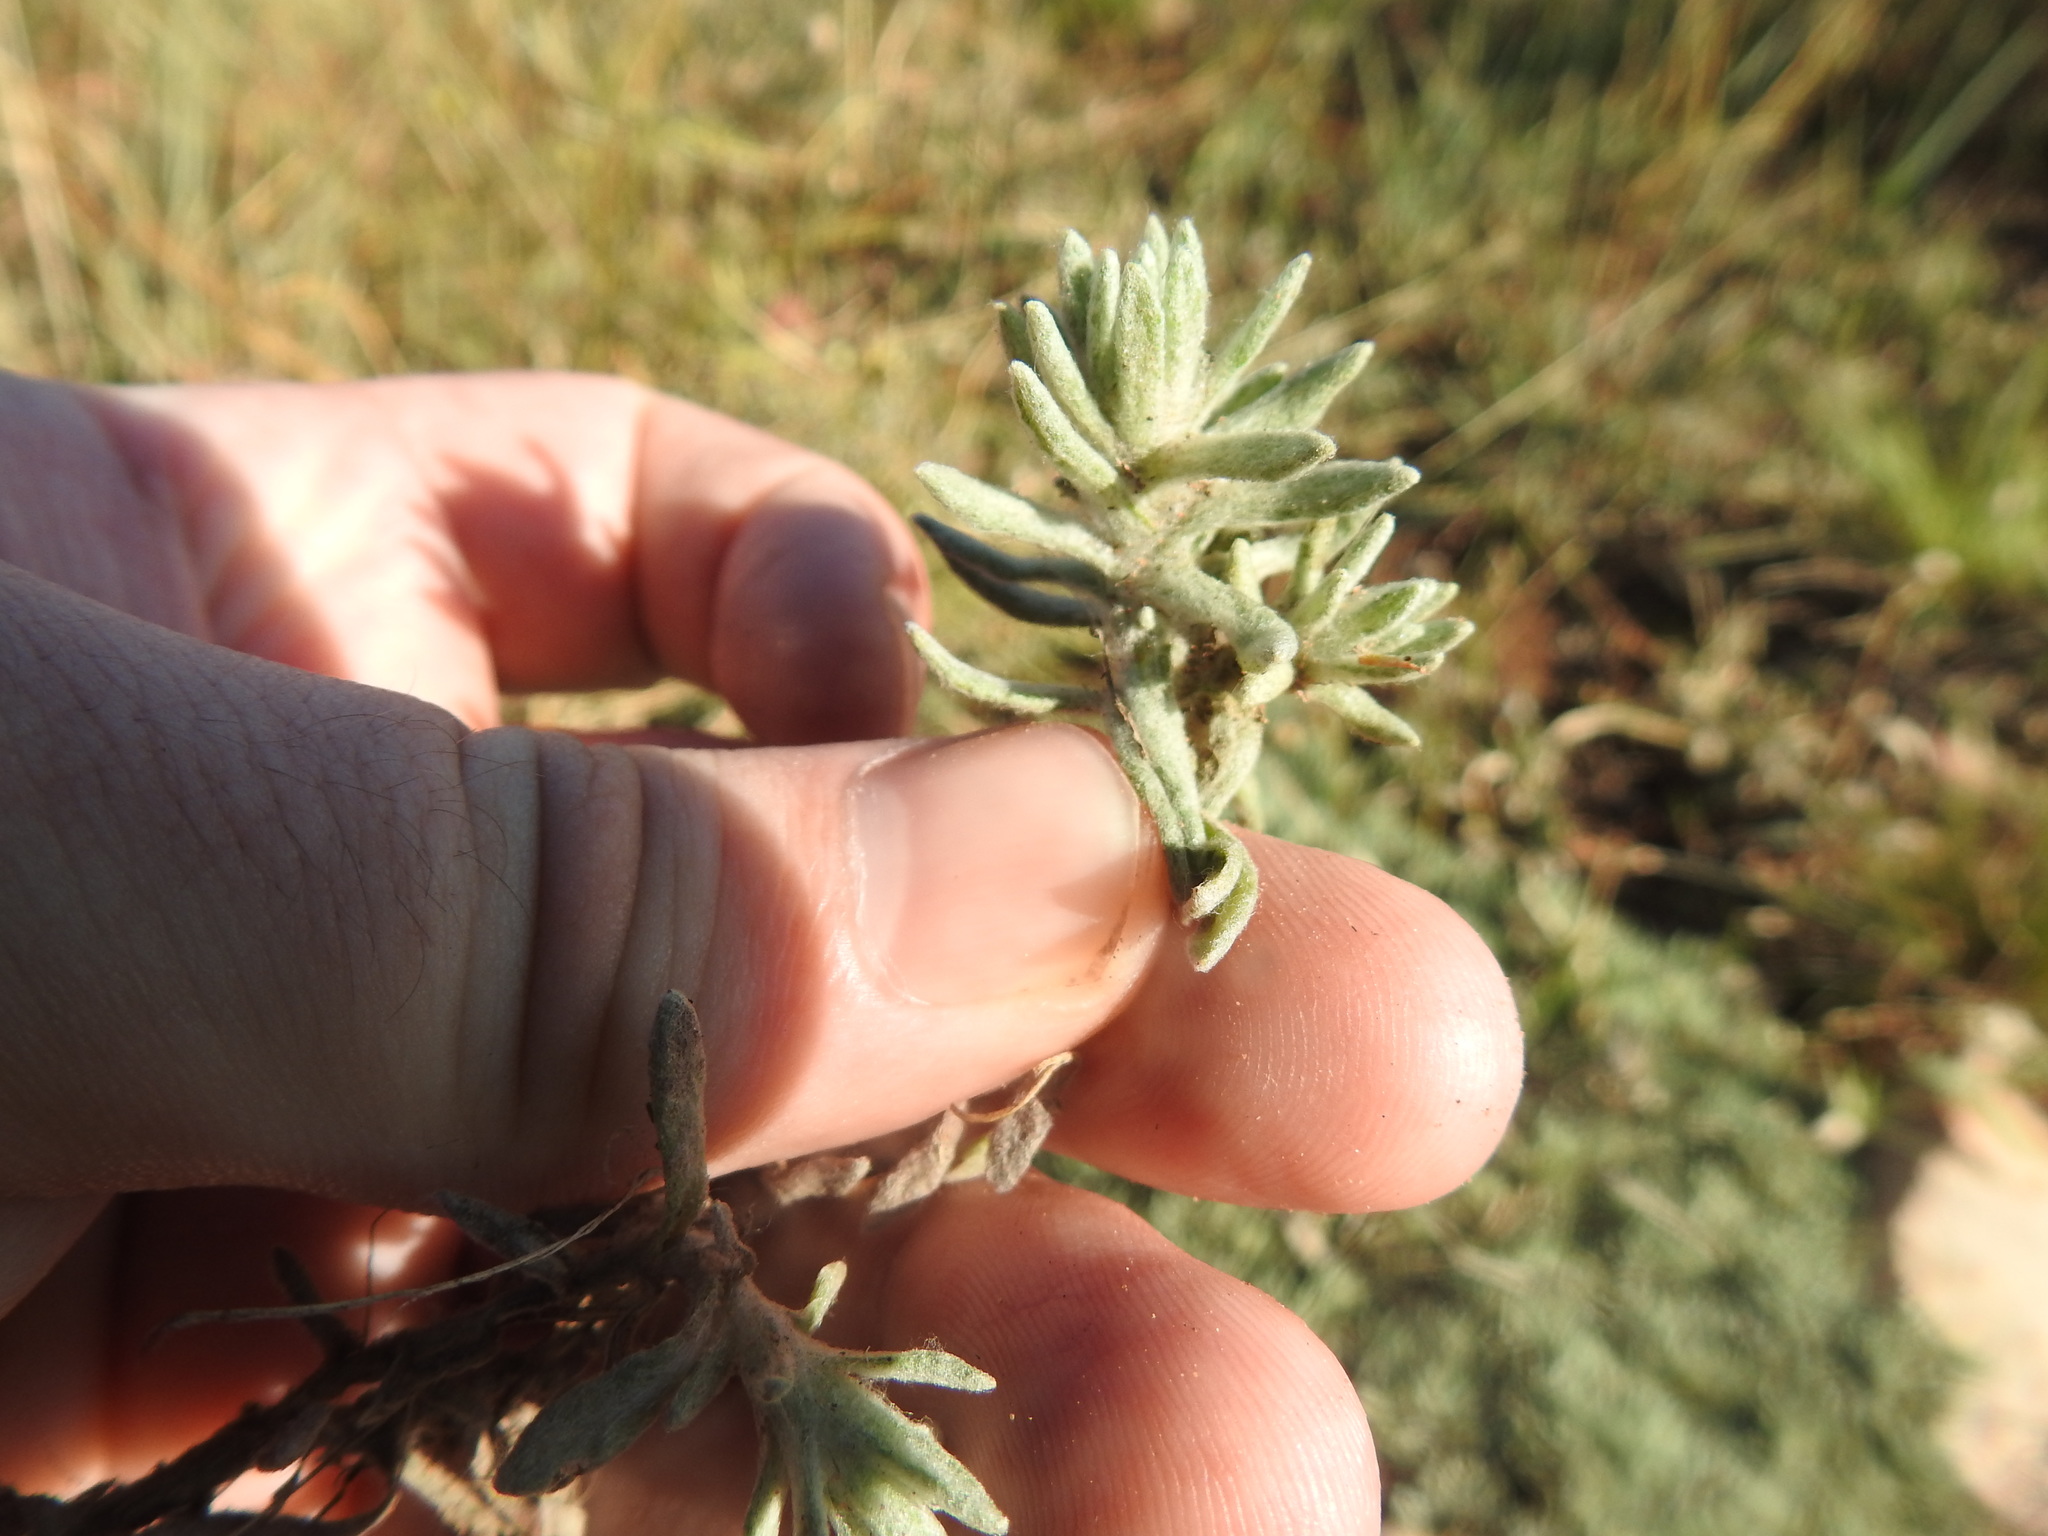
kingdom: Plantae
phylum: Tracheophyta
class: Magnoliopsida
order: Asterales
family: Asteraceae
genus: Helichrysum
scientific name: Helichrysum cerastioides
